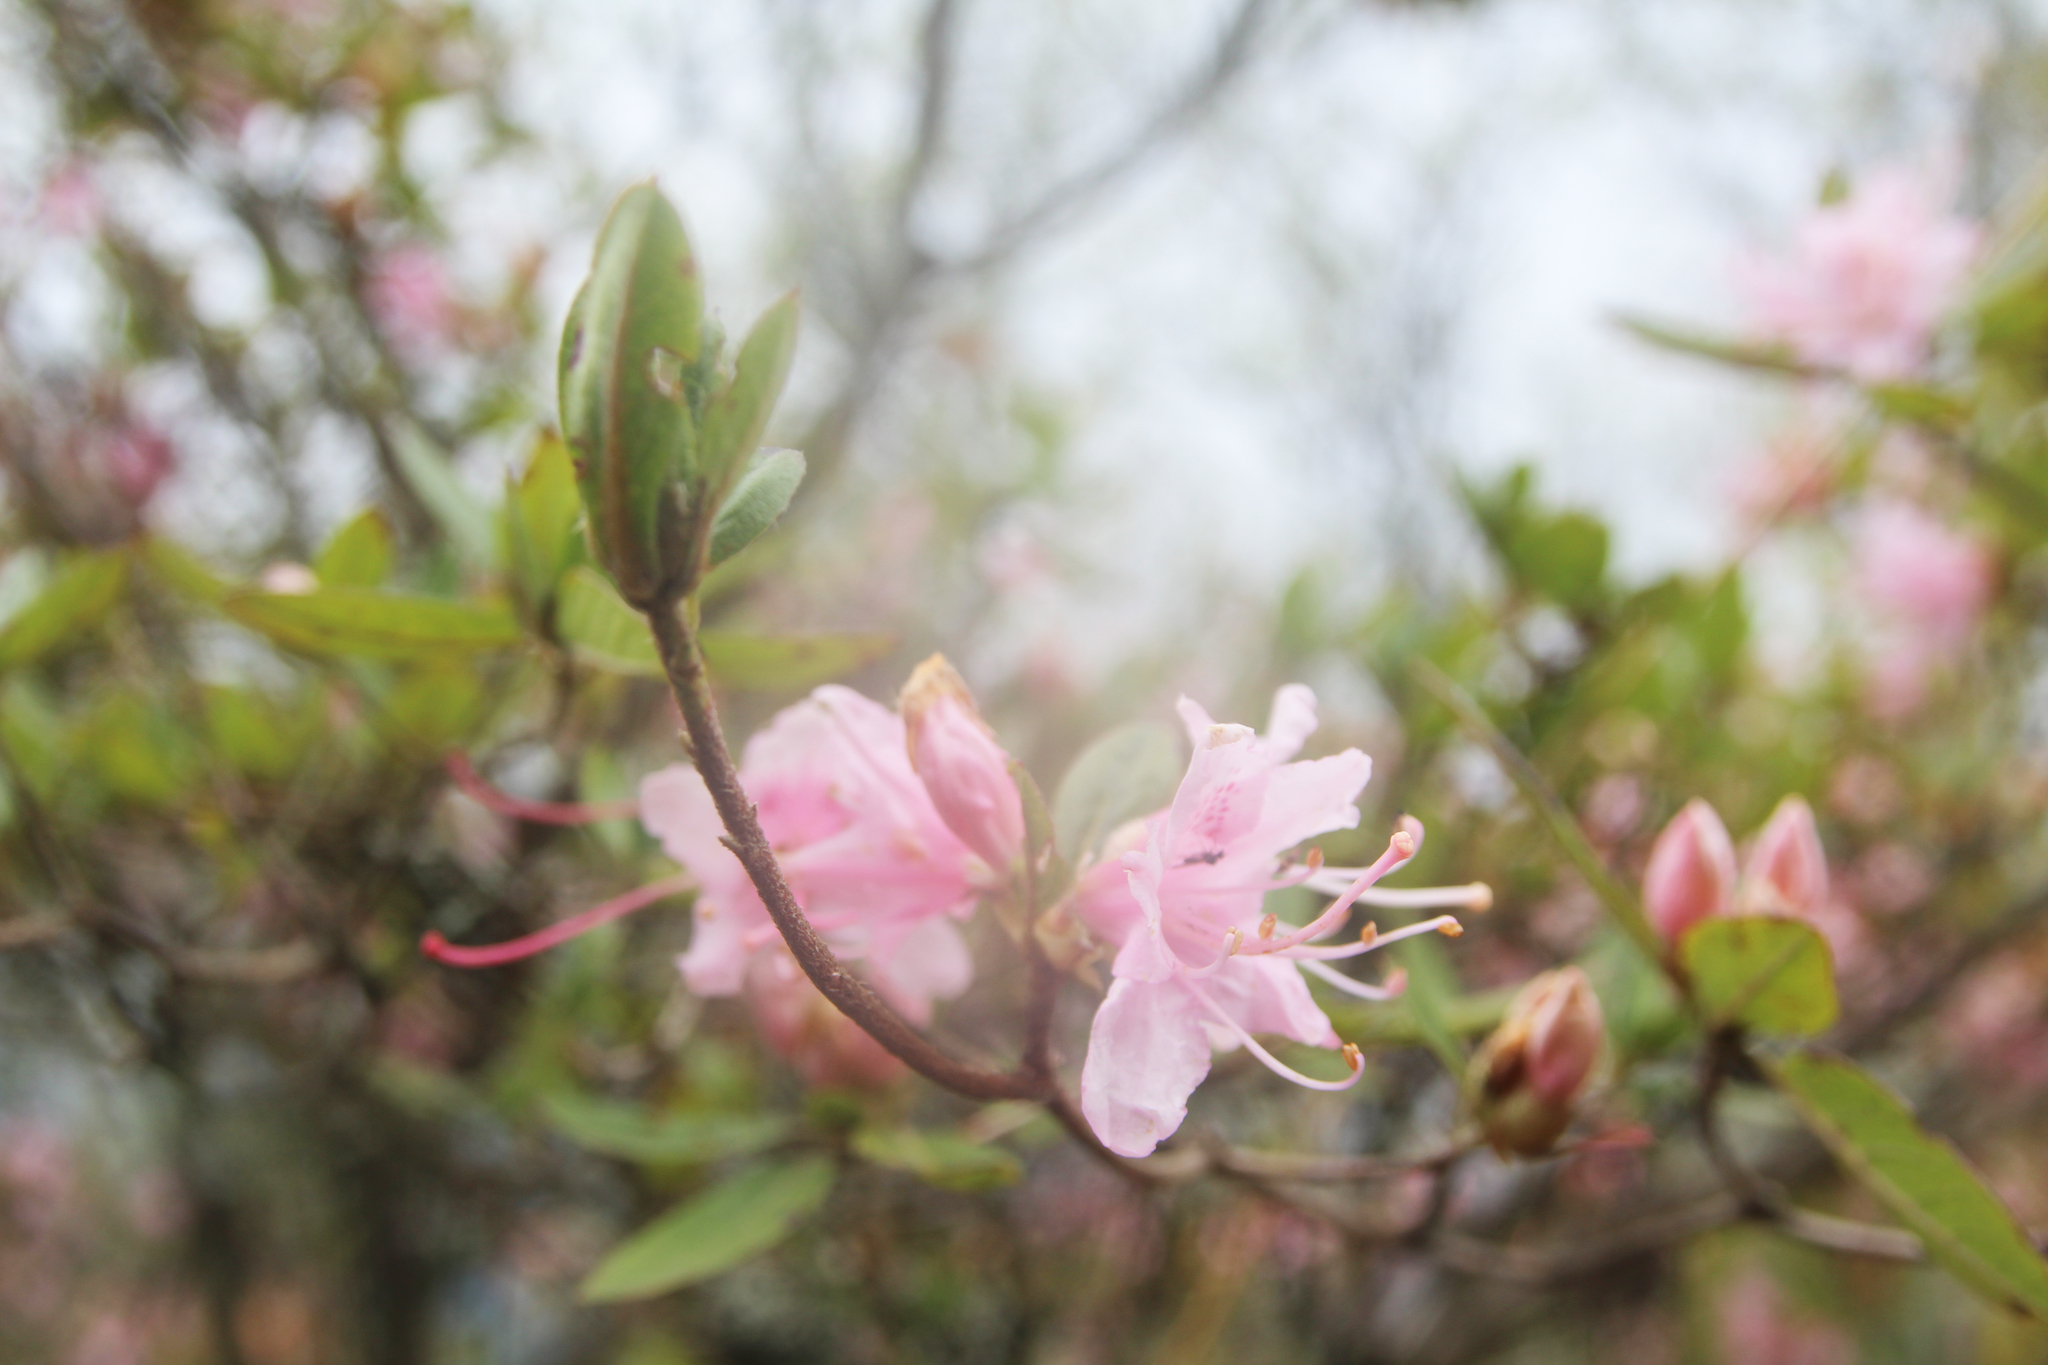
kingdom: Plantae
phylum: Tracheophyta
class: Magnoliopsida
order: Ericales
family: Ericaceae
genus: Rhododendron
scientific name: Rhododendron rubropilosum
